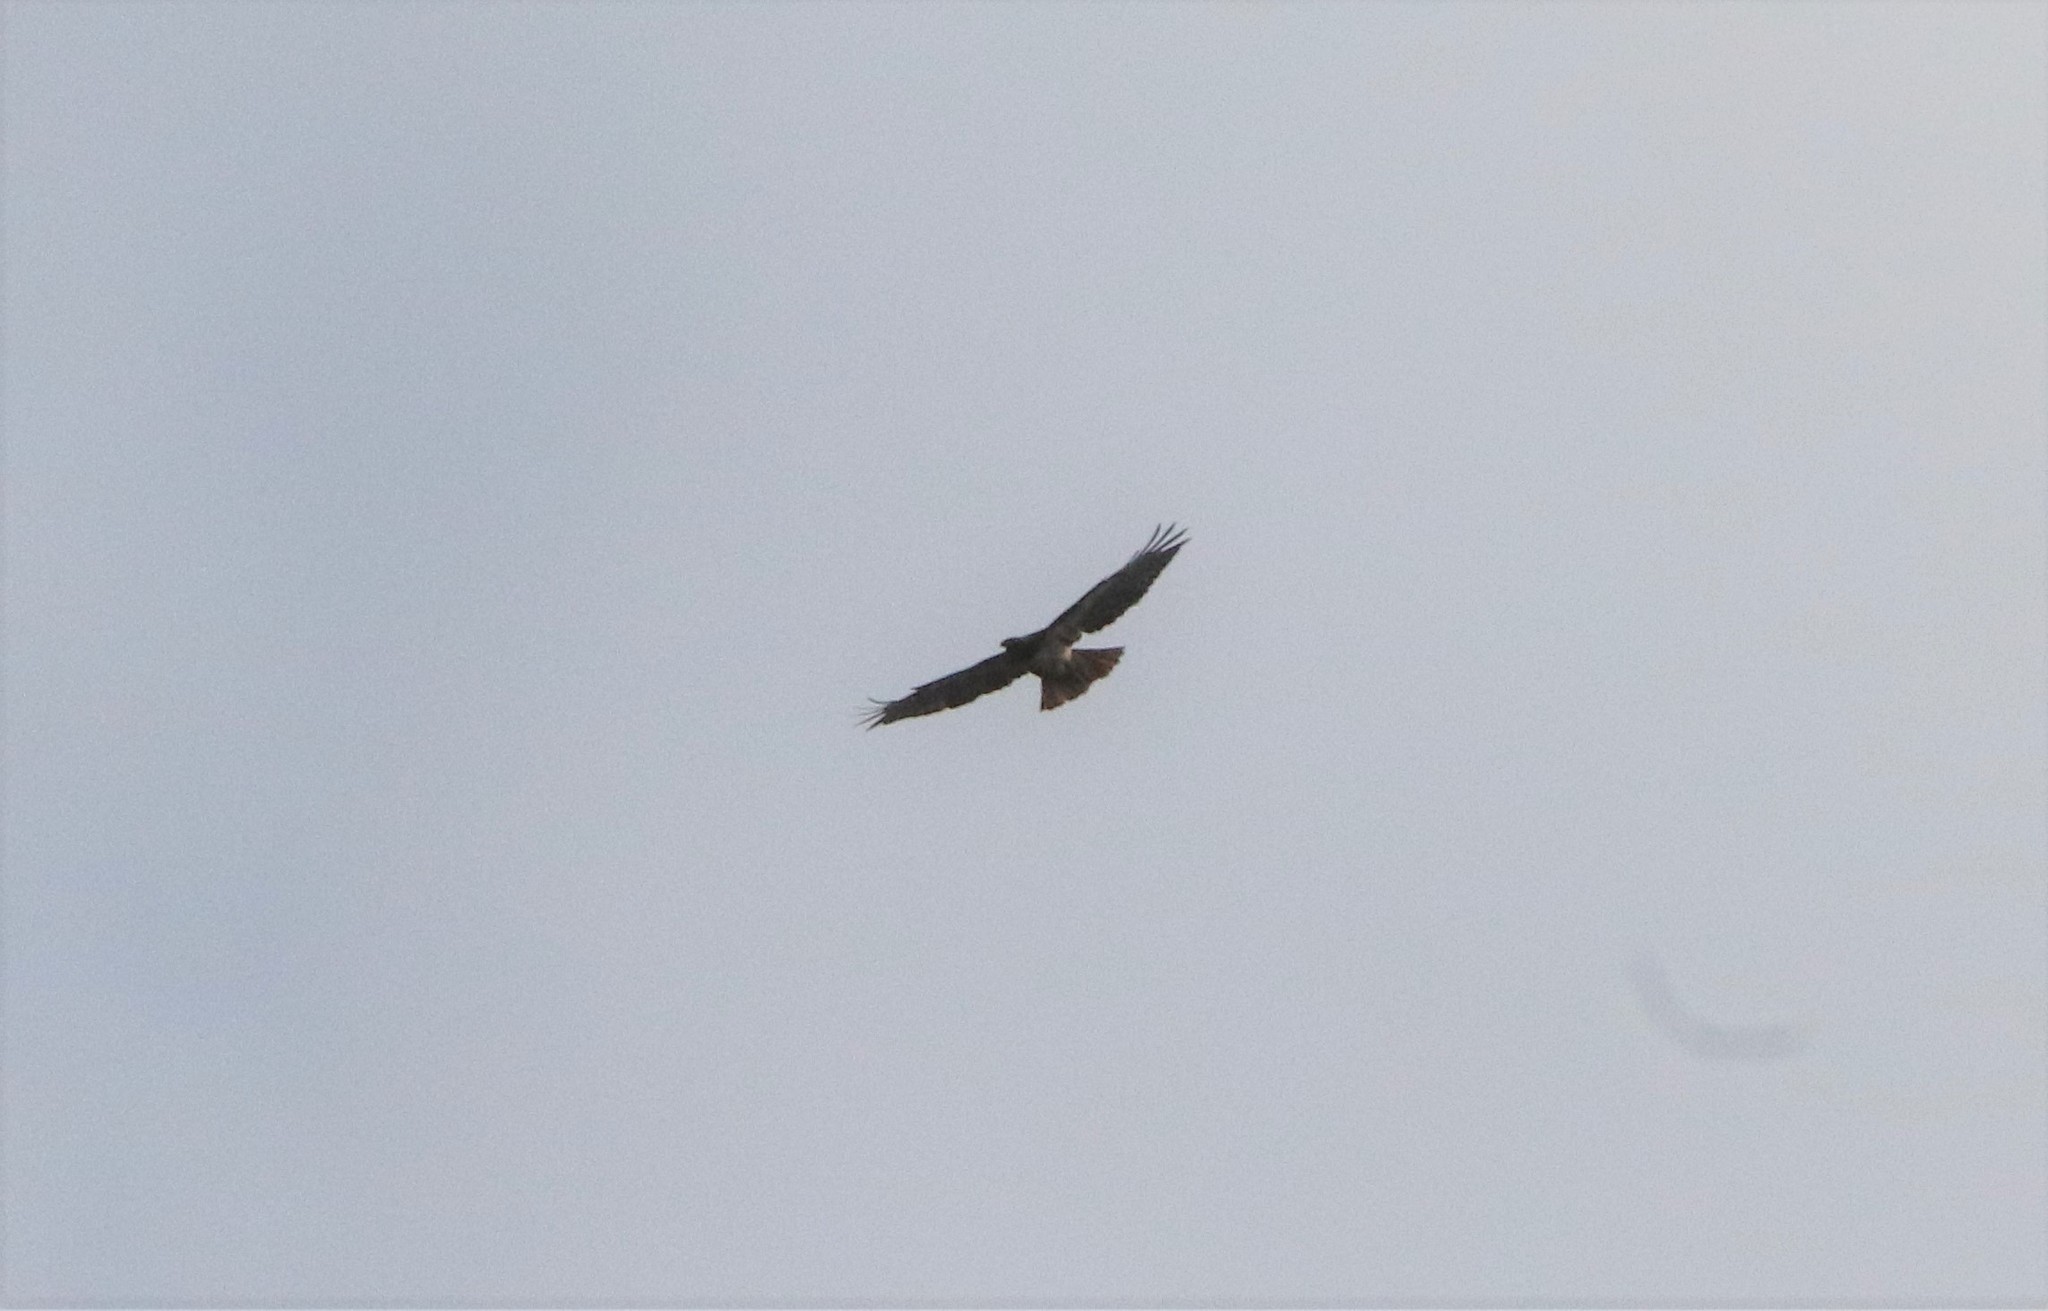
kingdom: Animalia
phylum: Chordata
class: Aves
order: Accipitriformes
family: Accipitridae
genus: Buteo
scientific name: Buteo jamaicensis
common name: Red-tailed hawk
